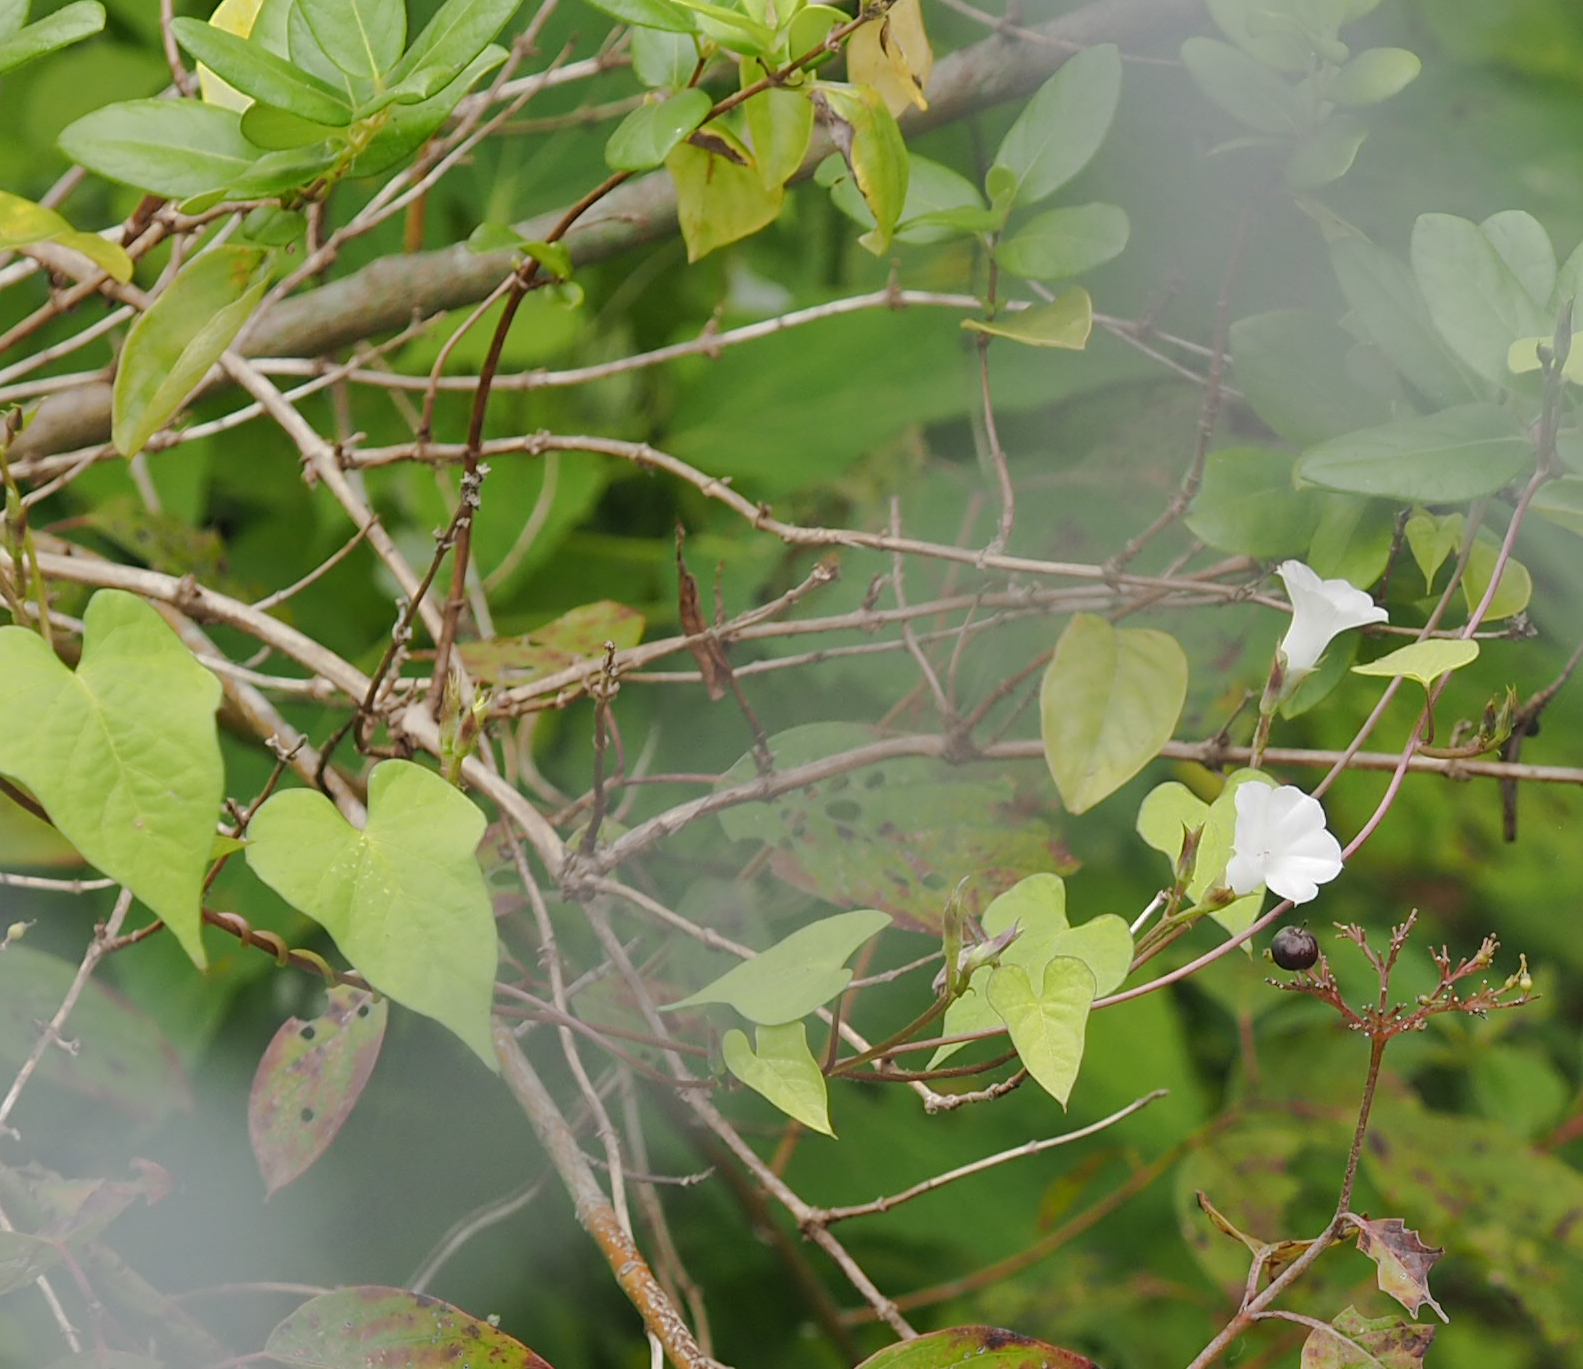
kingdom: Plantae
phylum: Tracheophyta
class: Magnoliopsida
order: Solanales
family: Convolvulaceae
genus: Ipomoea
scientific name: Ipomoea lacunosa
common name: White morning-glory
